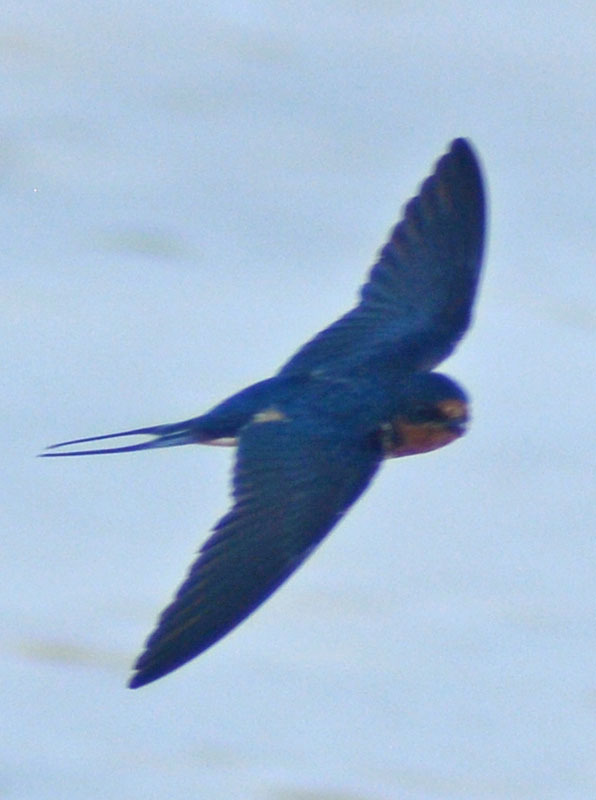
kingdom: Animalia
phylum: Chordata
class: Aves
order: Passeriformes
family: Hirundinidae
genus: Hirundo
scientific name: Hirundo rustica
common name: Barn swallow
